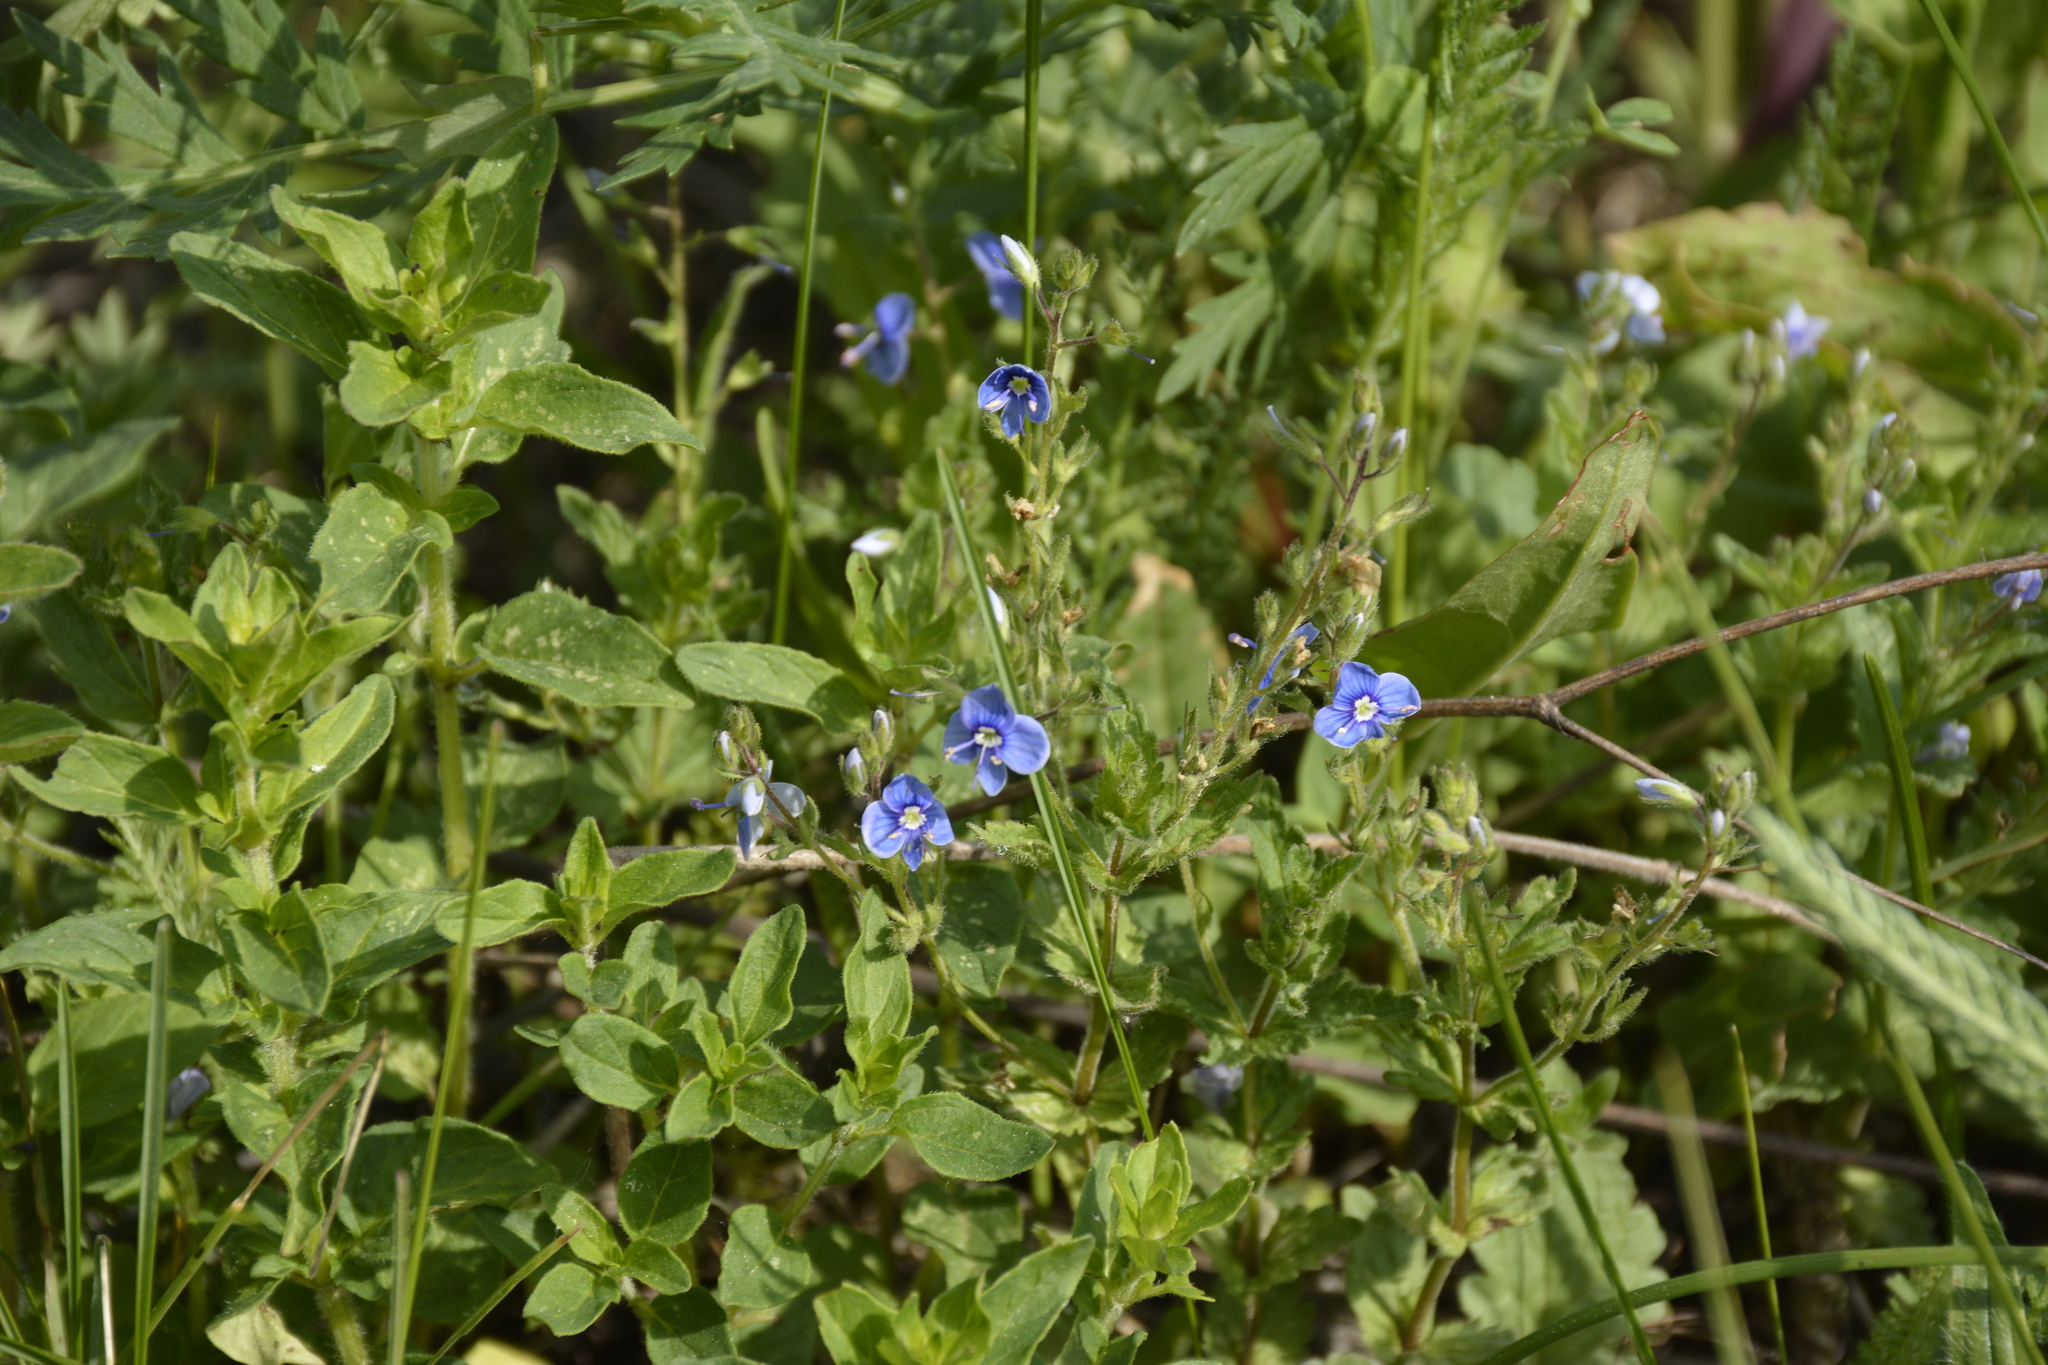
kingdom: Plantae
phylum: Tracheophyta
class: Magnoliopsida
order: Lamiales
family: Plantaginaceae
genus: Veronica
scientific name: Veronica chamaedrys
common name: Germander speedwell
